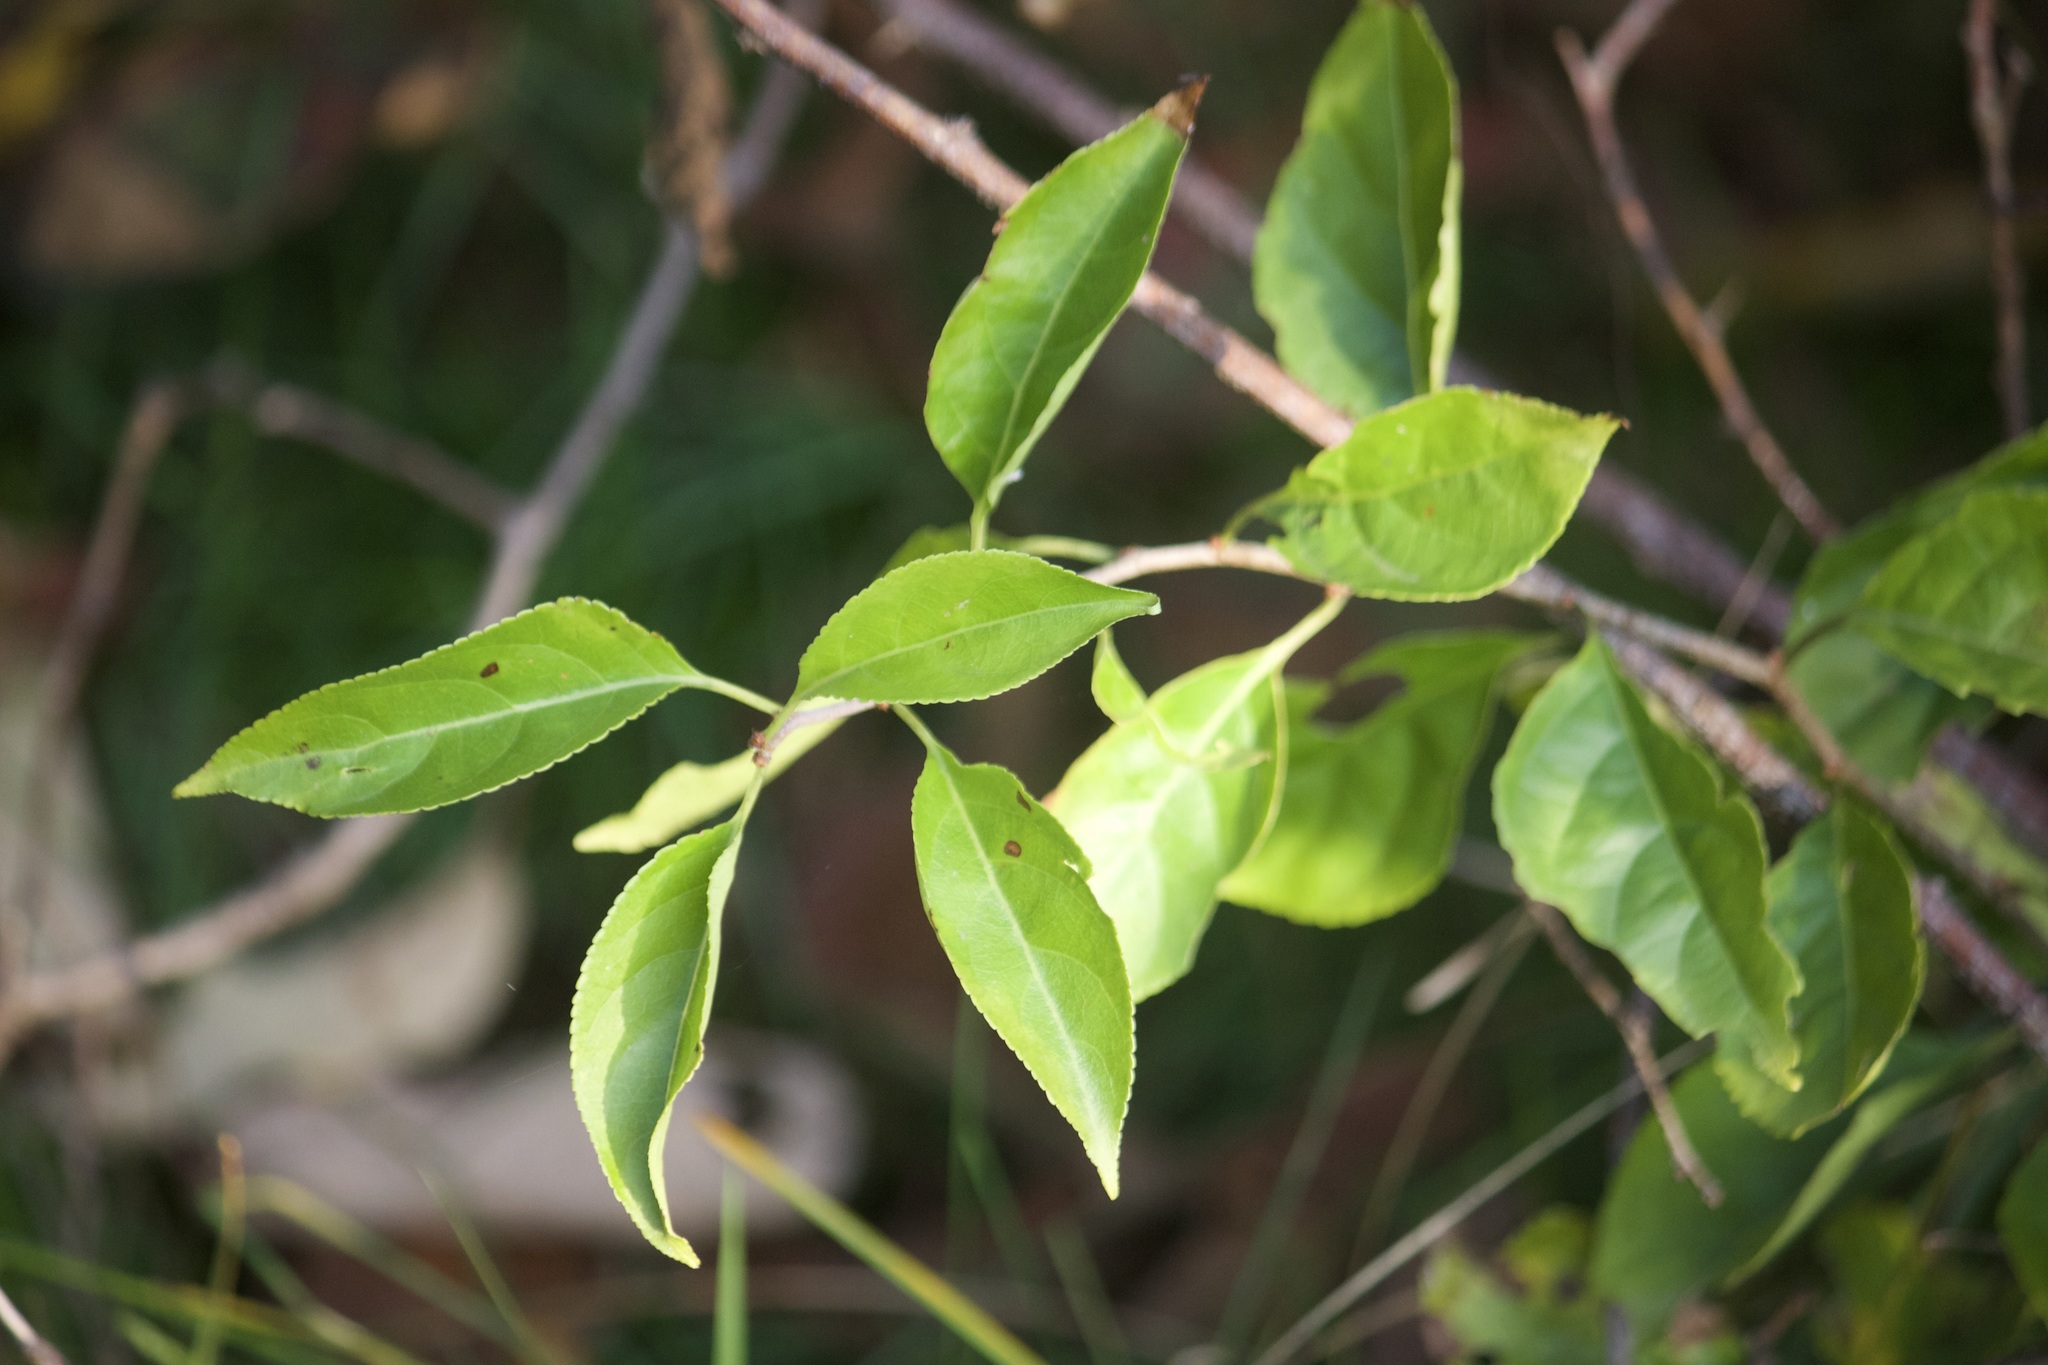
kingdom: Plantae
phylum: Tracheophyta
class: Magnoliopsida
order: Celastrales
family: Celastraceae
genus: Celastrus
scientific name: Celastrus orbiculatus
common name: Oriental bittersweet
